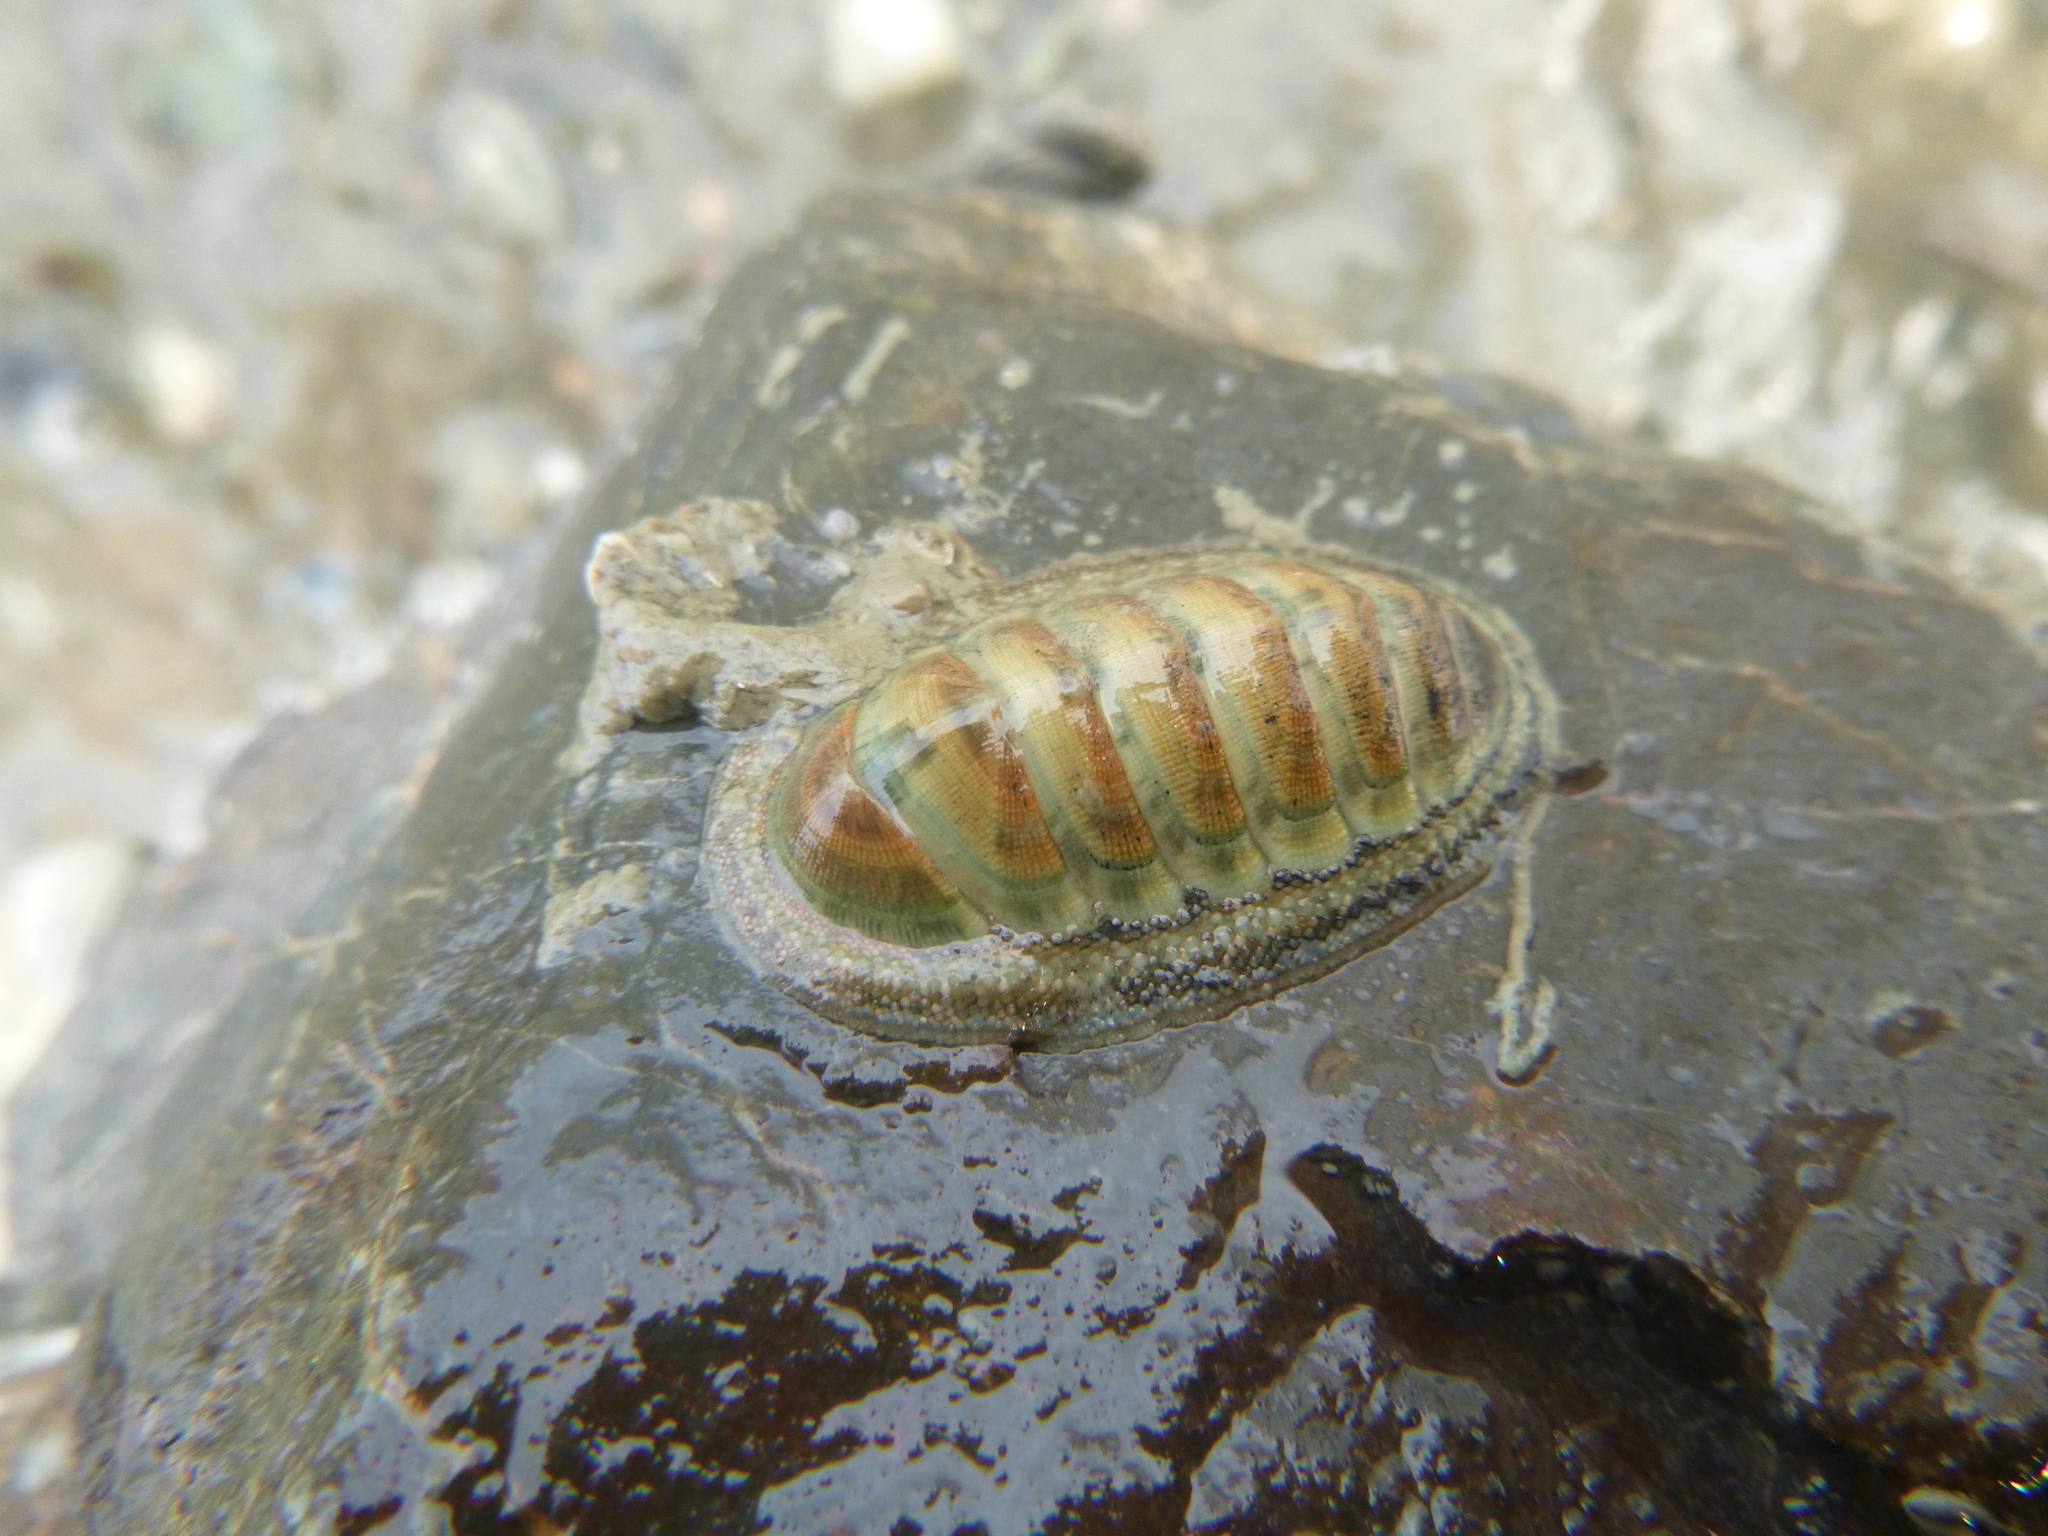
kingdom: Animalia
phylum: Mollusca
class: Polyplacophora
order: Chitonida
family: Chitonidae
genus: Chiton
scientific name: Chiton glaucus
